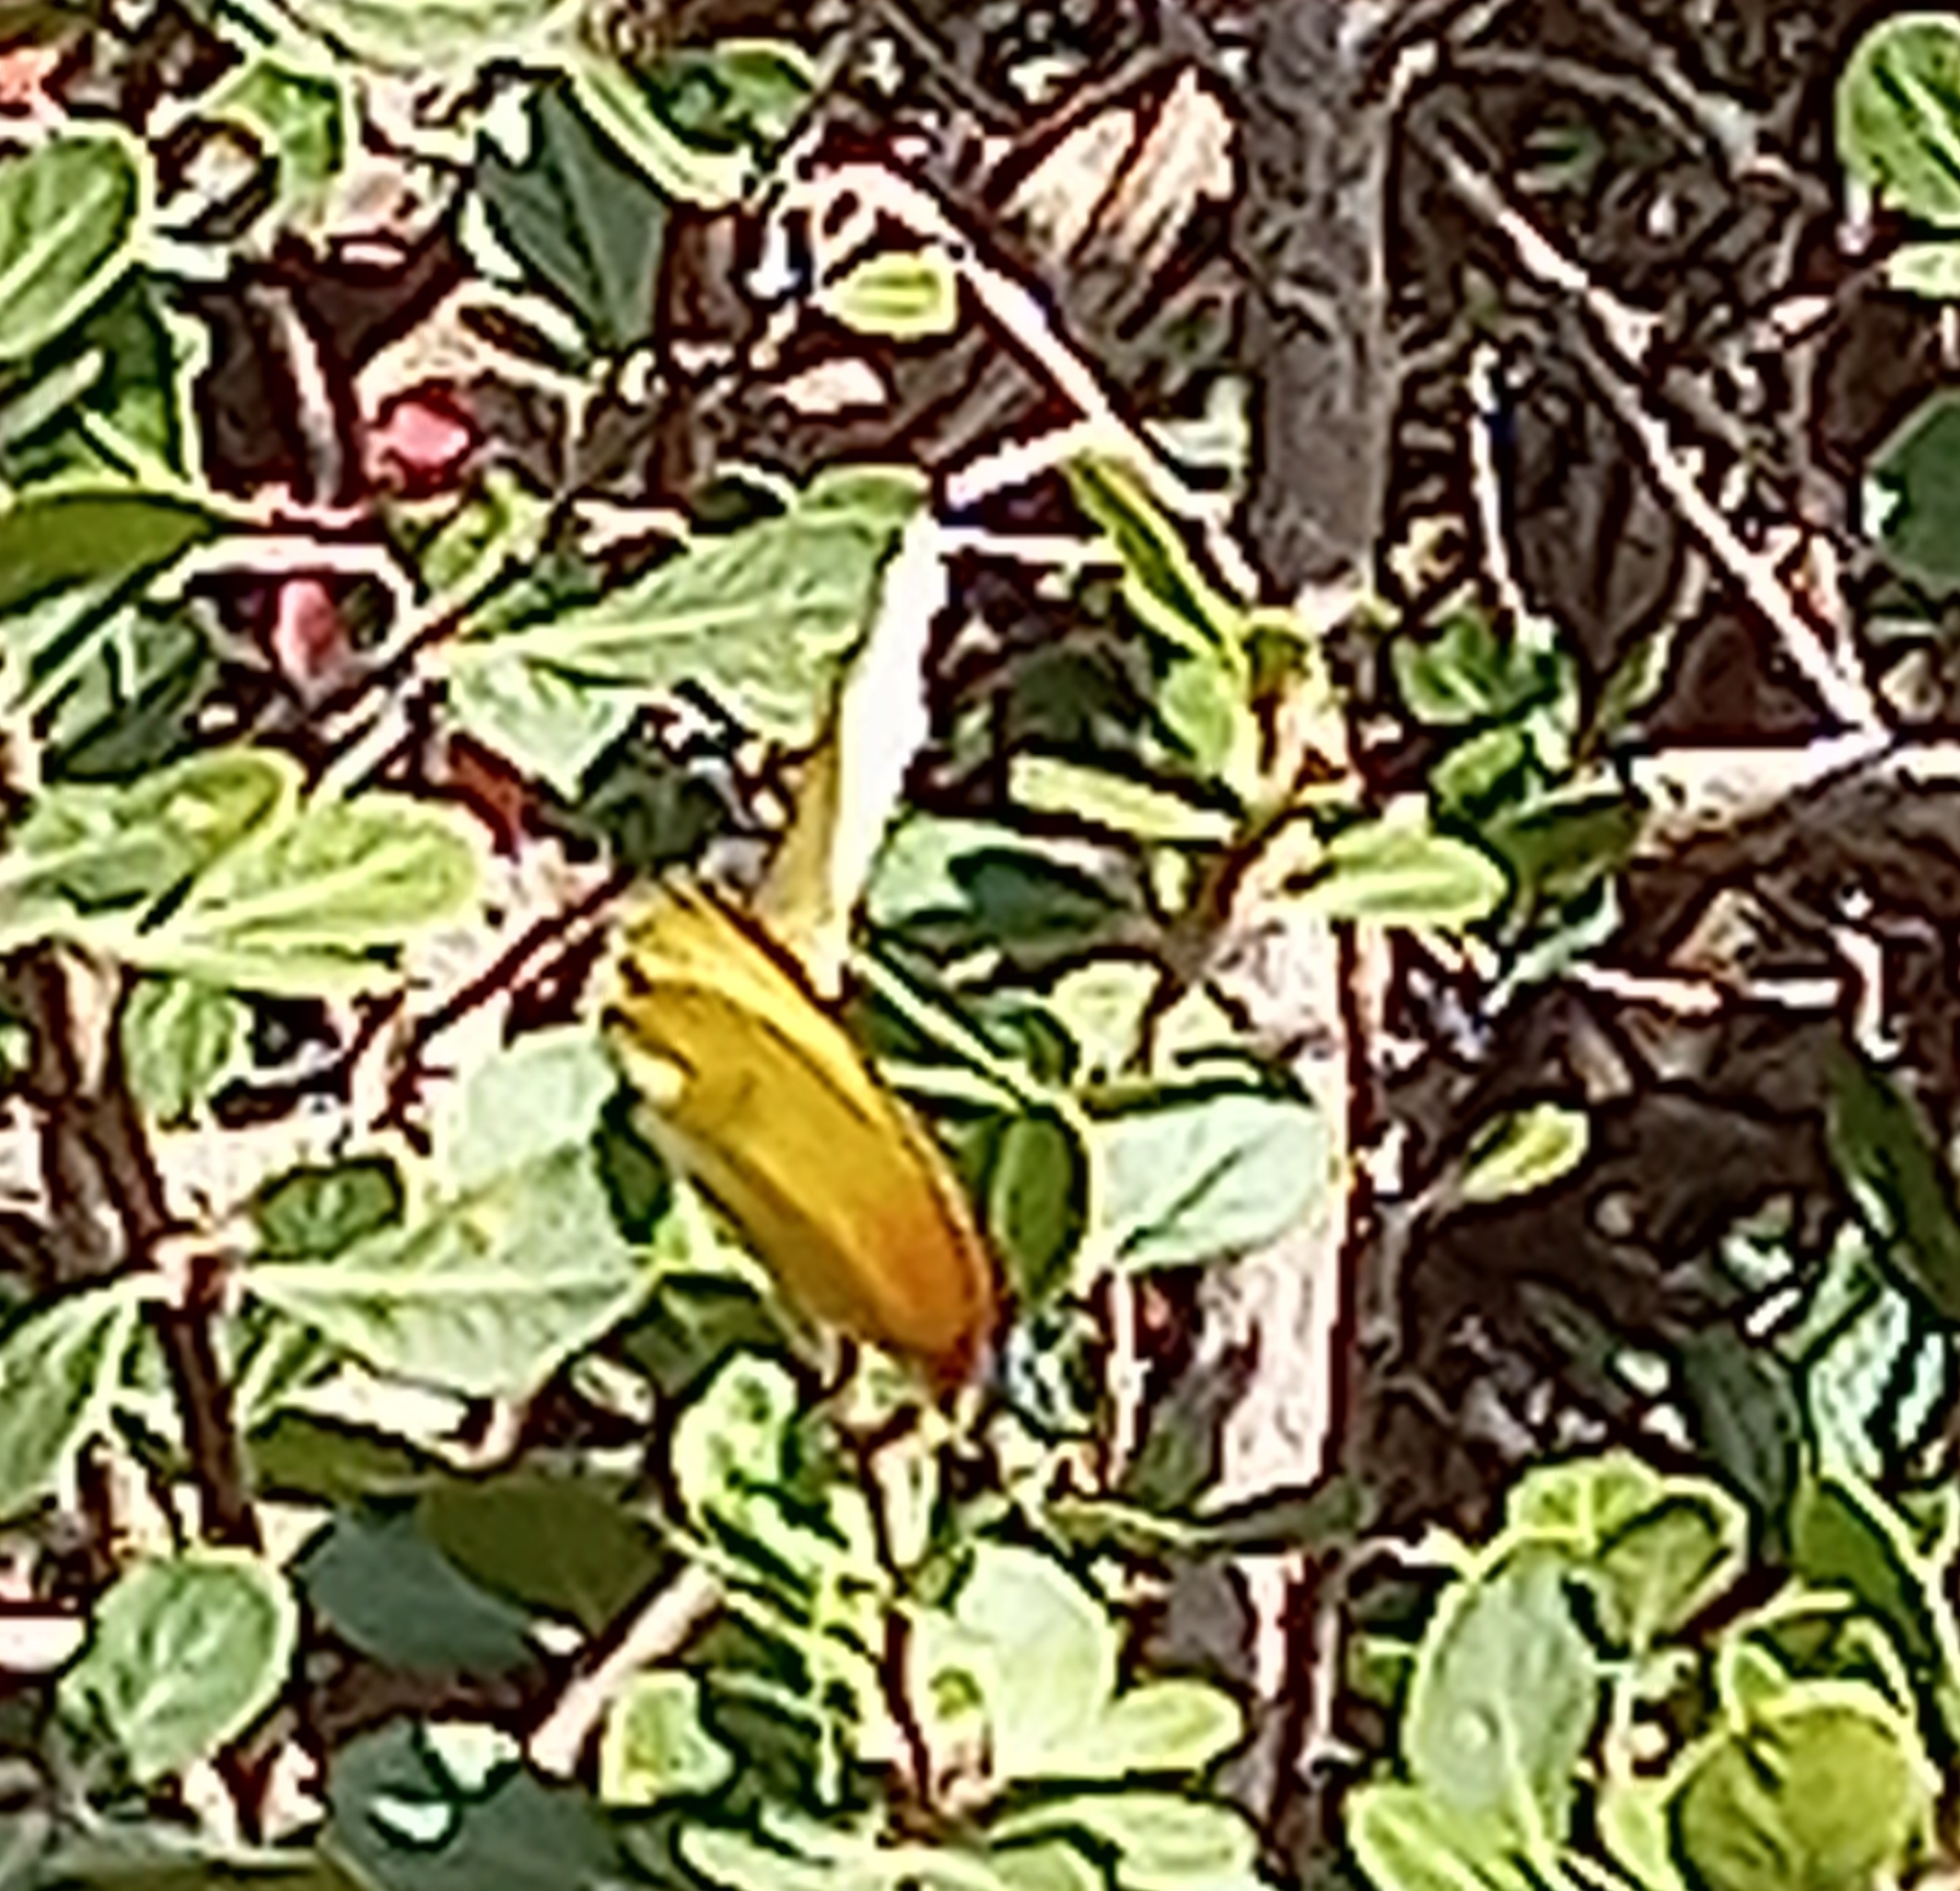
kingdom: Animalia
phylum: Arthropoda
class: Insecta
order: Lepidoptera
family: Pieridae
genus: Mylothris
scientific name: Mylothris agathina
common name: Eastern dotted border
